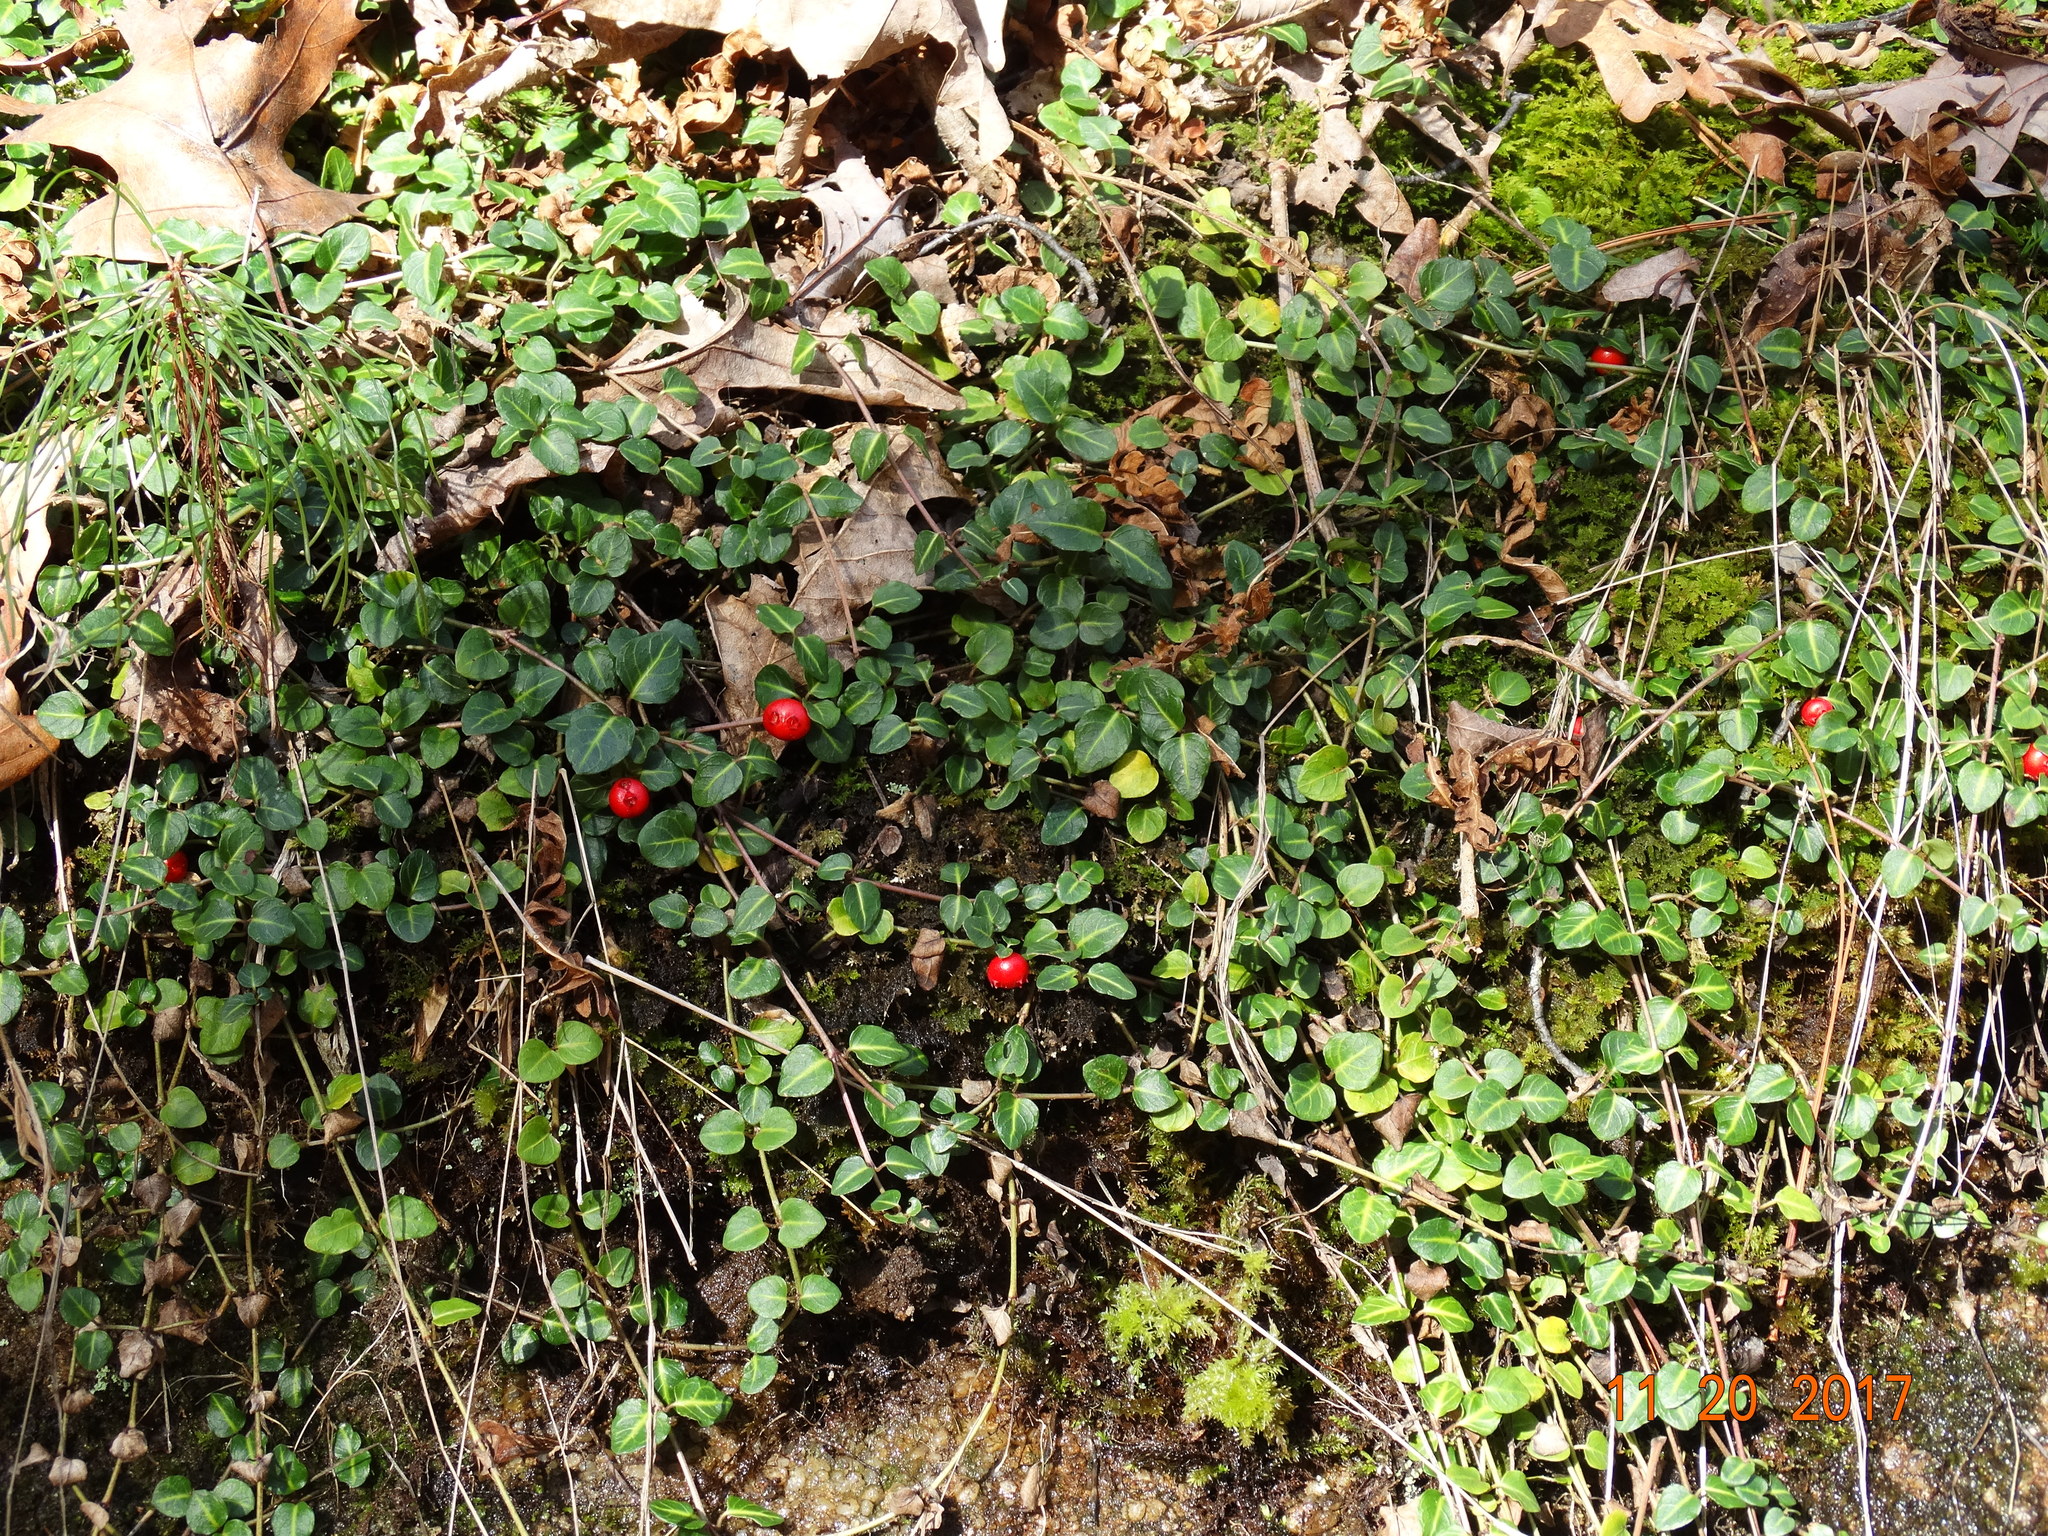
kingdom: Plantae
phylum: Tracheophyta
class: Magnoliopsida
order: Gentianales
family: Rubiaceae
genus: Mitchella
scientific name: Mitchella repens
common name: Partridge-berry
